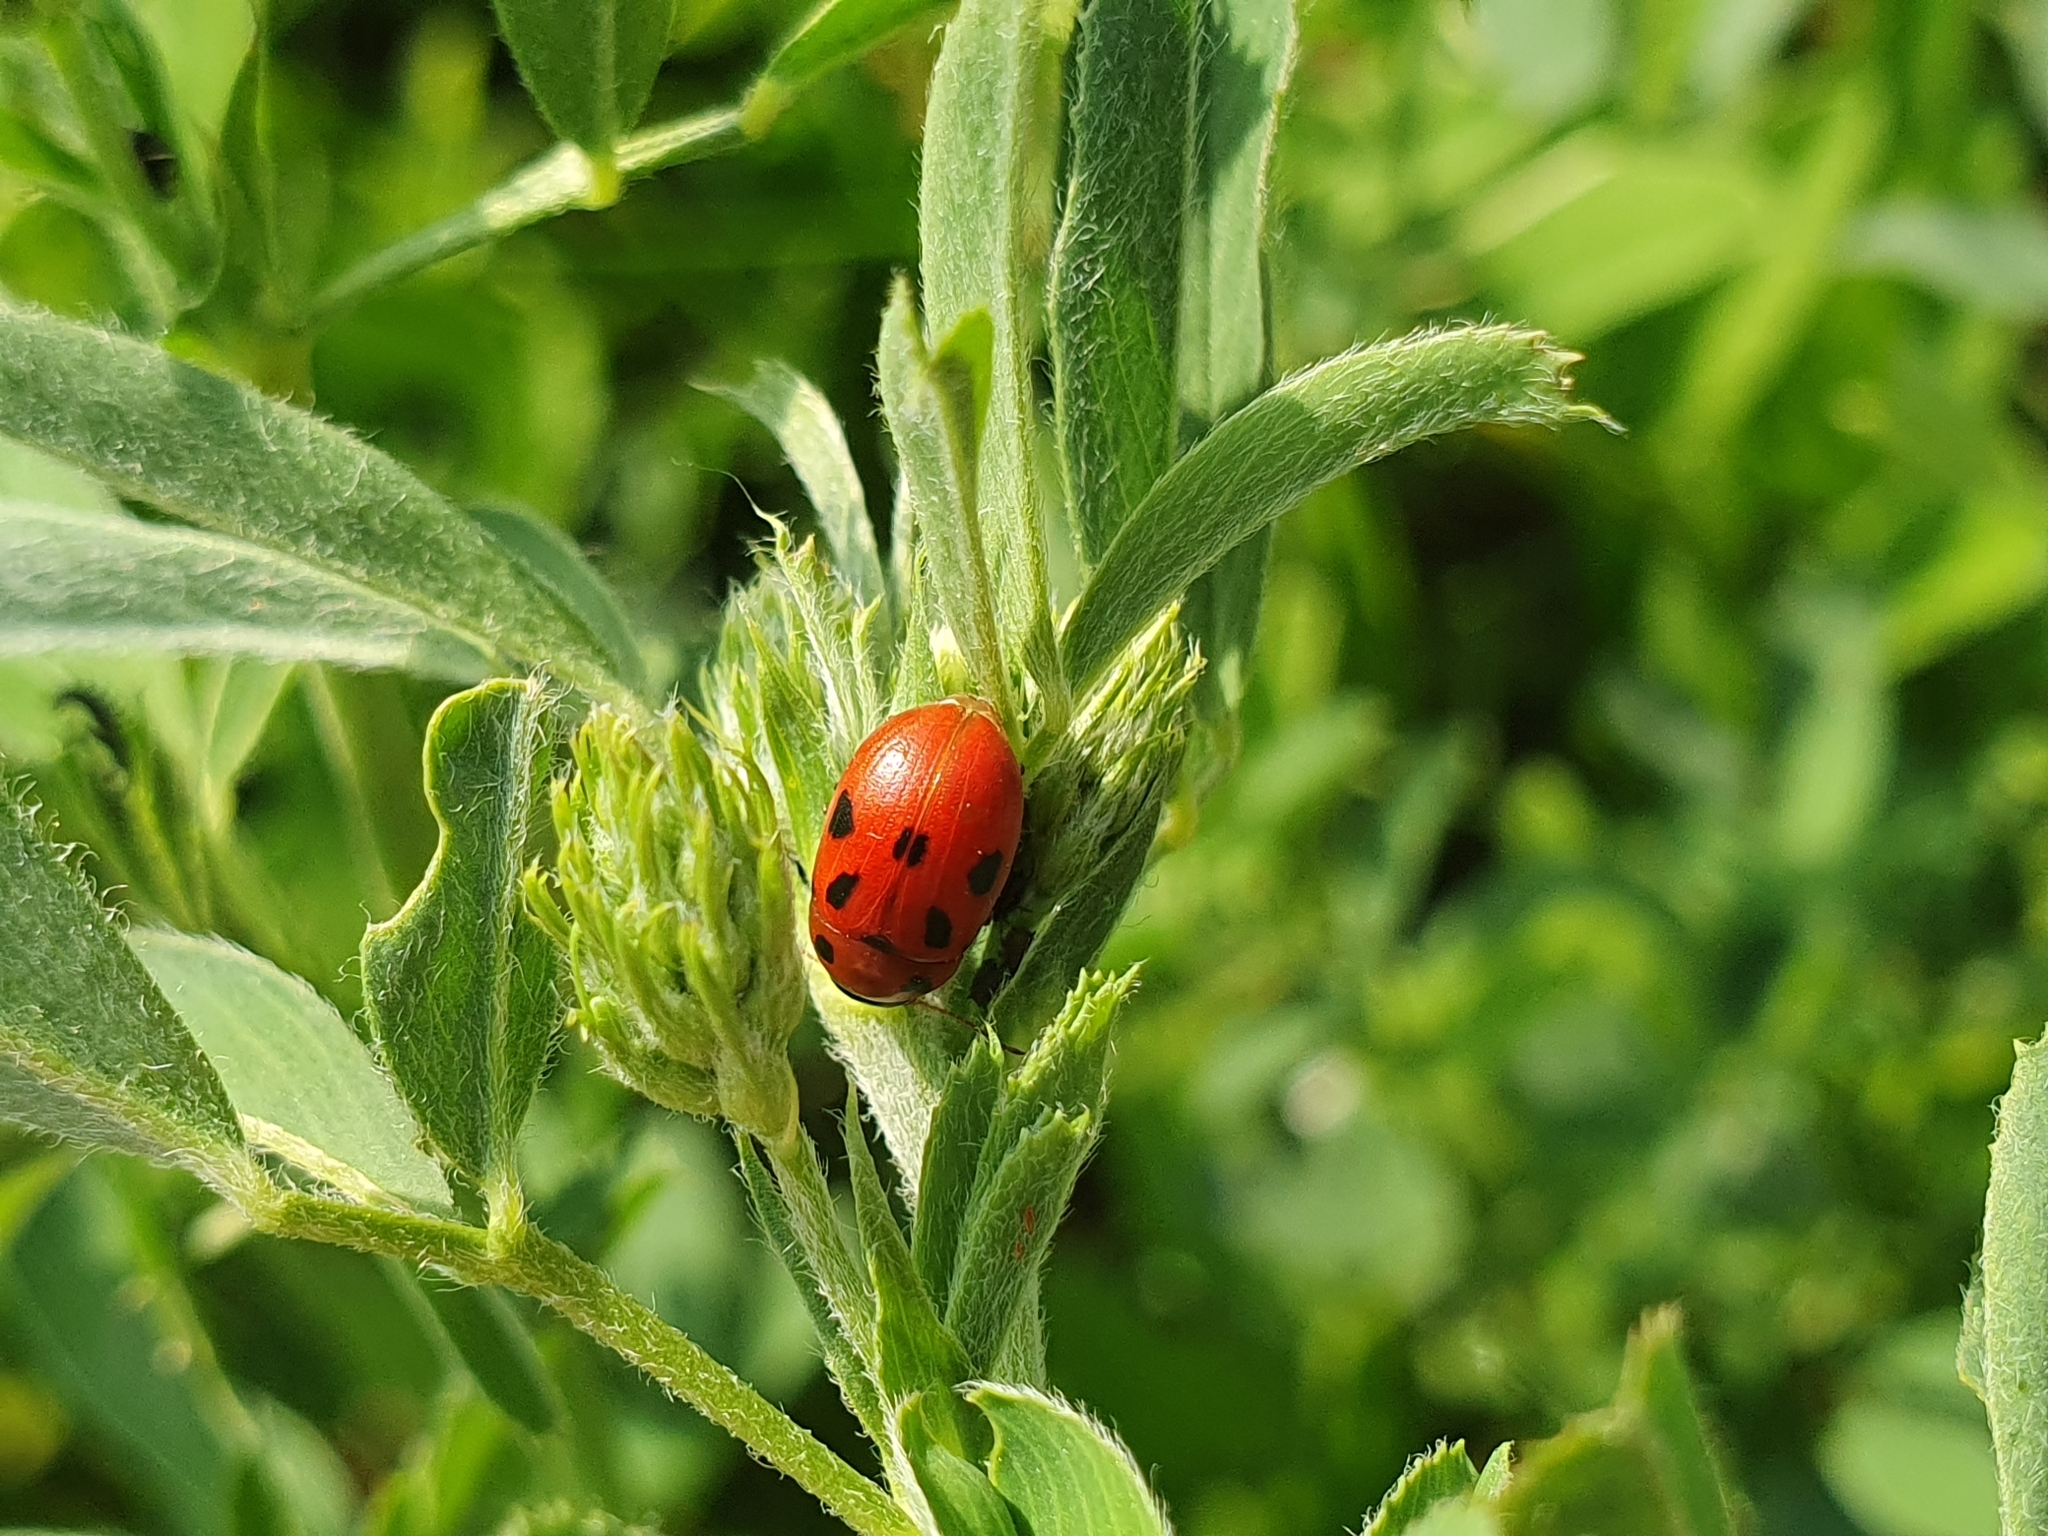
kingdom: Animalia
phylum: Arthropoda
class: Insecta
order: Coleoptera
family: Chrysomelidae
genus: Gonioctena
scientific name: Gonioctena fornicata
